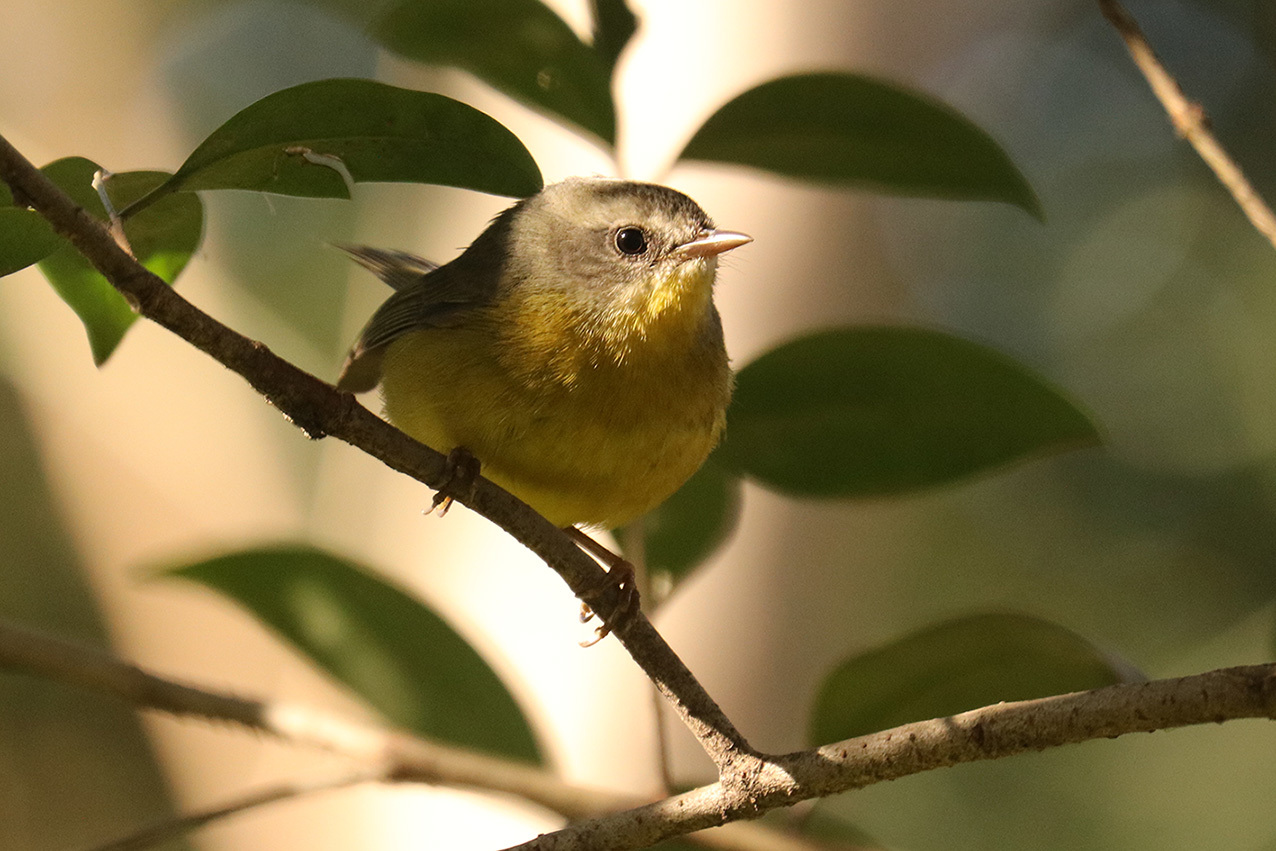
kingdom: Animalia
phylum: Chordata
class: Aves
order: Passeriformes
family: Parulidae
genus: Basileuterus
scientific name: Basileuterus culicivorus
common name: Golden-crowned warbler
